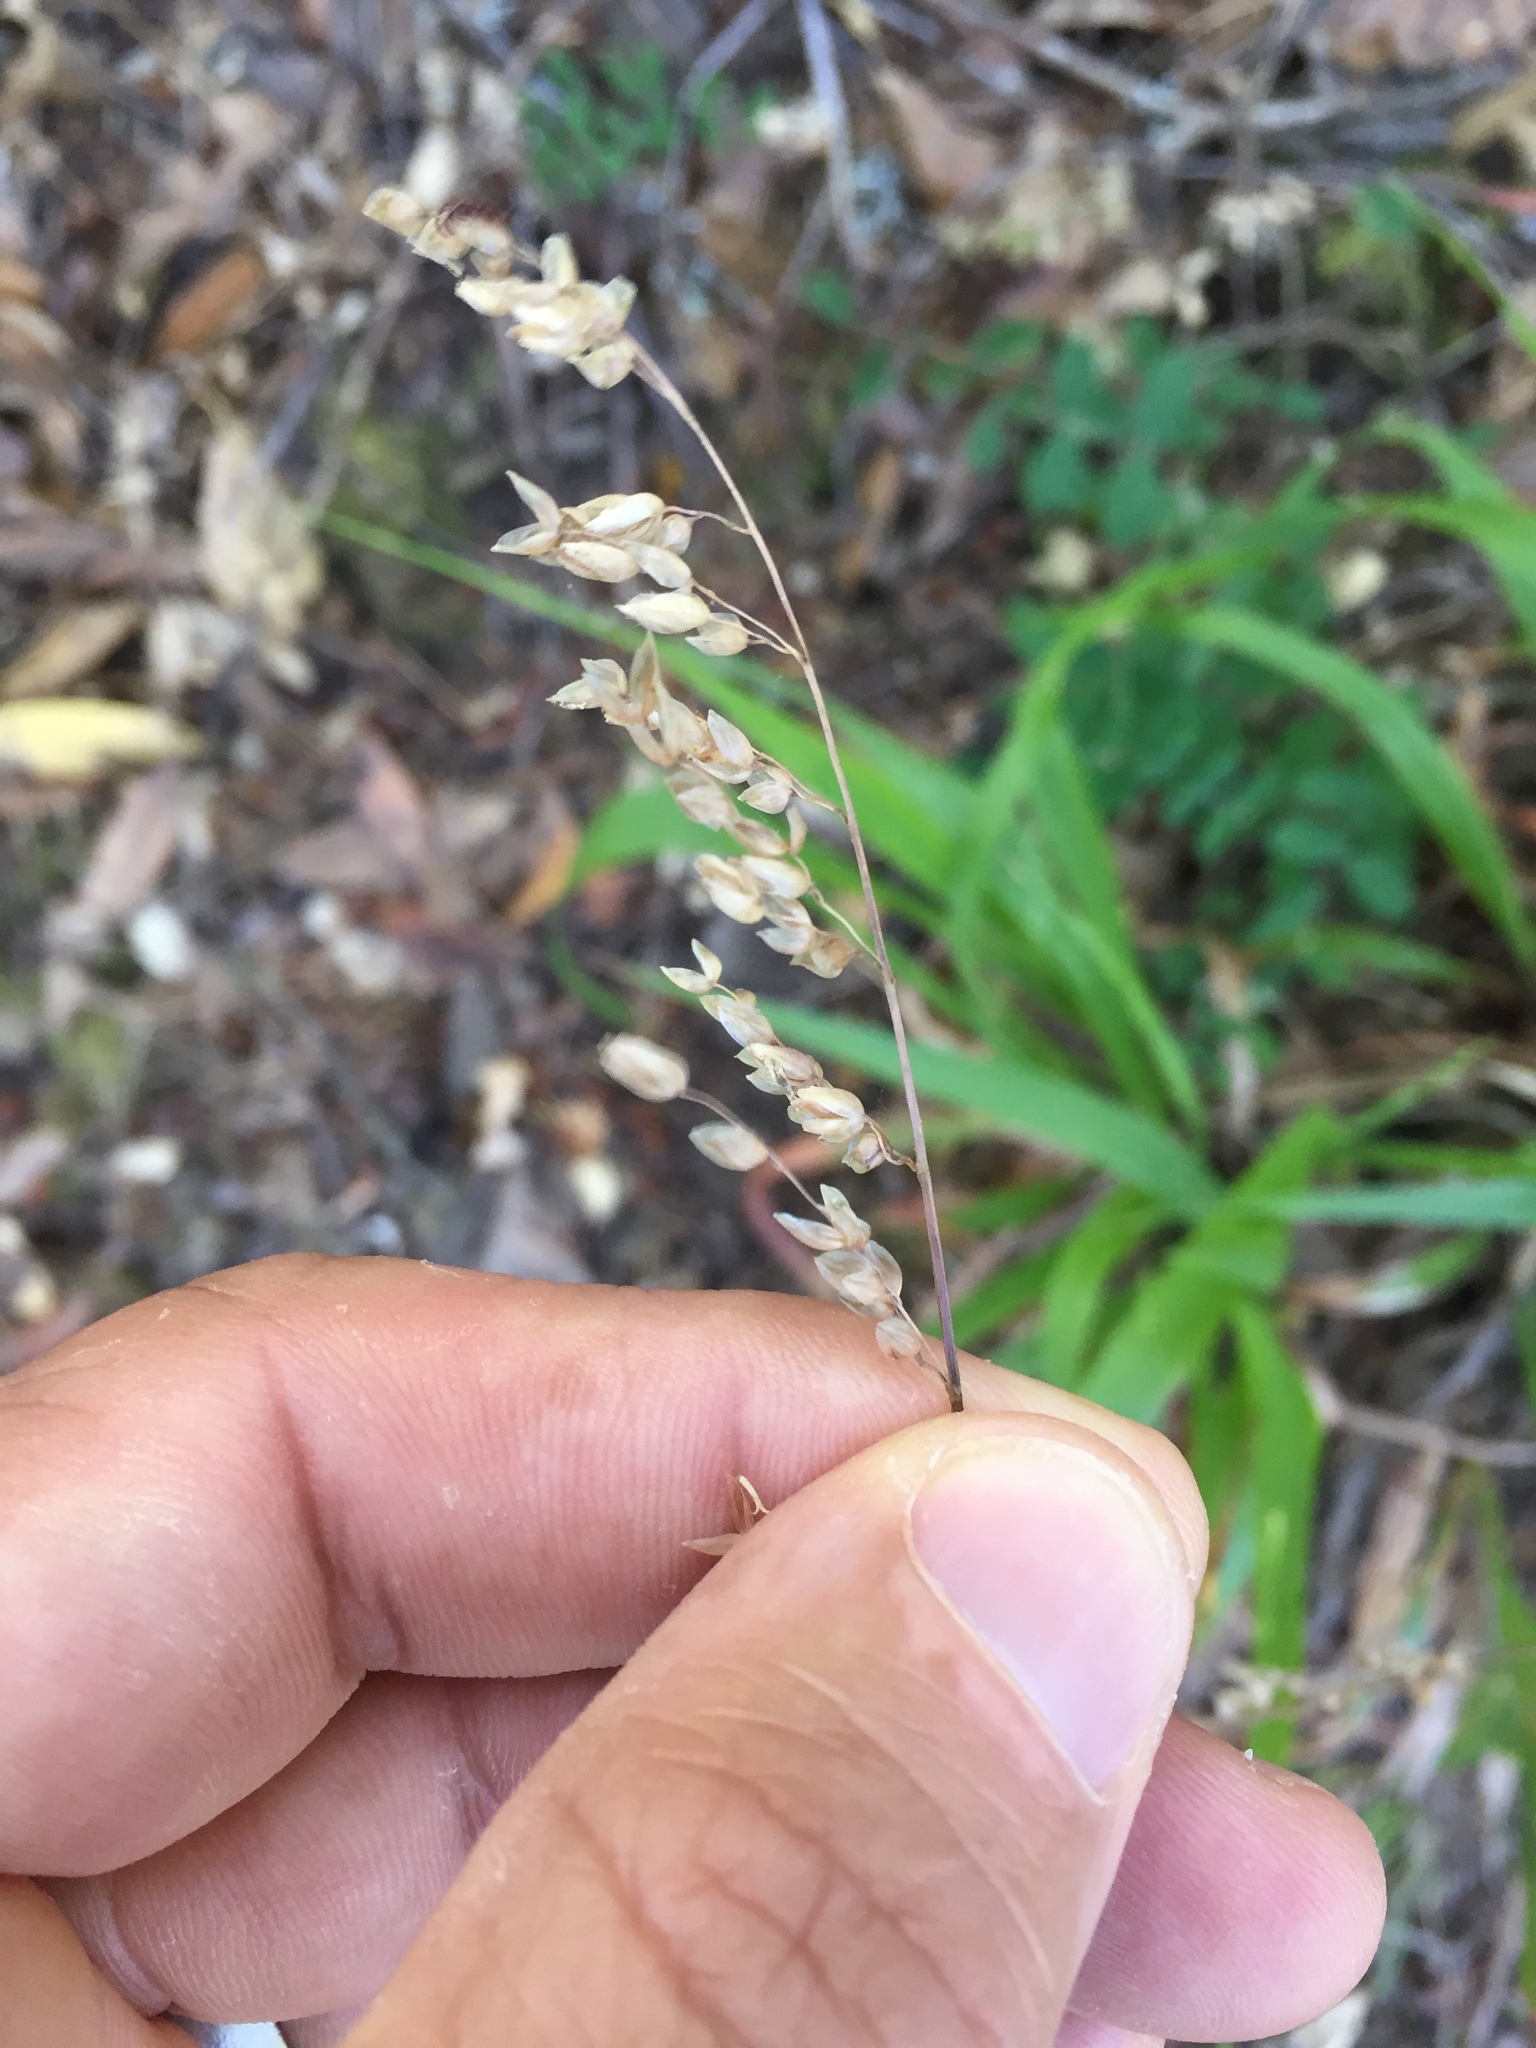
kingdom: Plantae
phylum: Tracheophyta
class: Liliopsida
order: Poales
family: Poaceae
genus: Anthoxanthum
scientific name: Anthoxanthum occidentale
